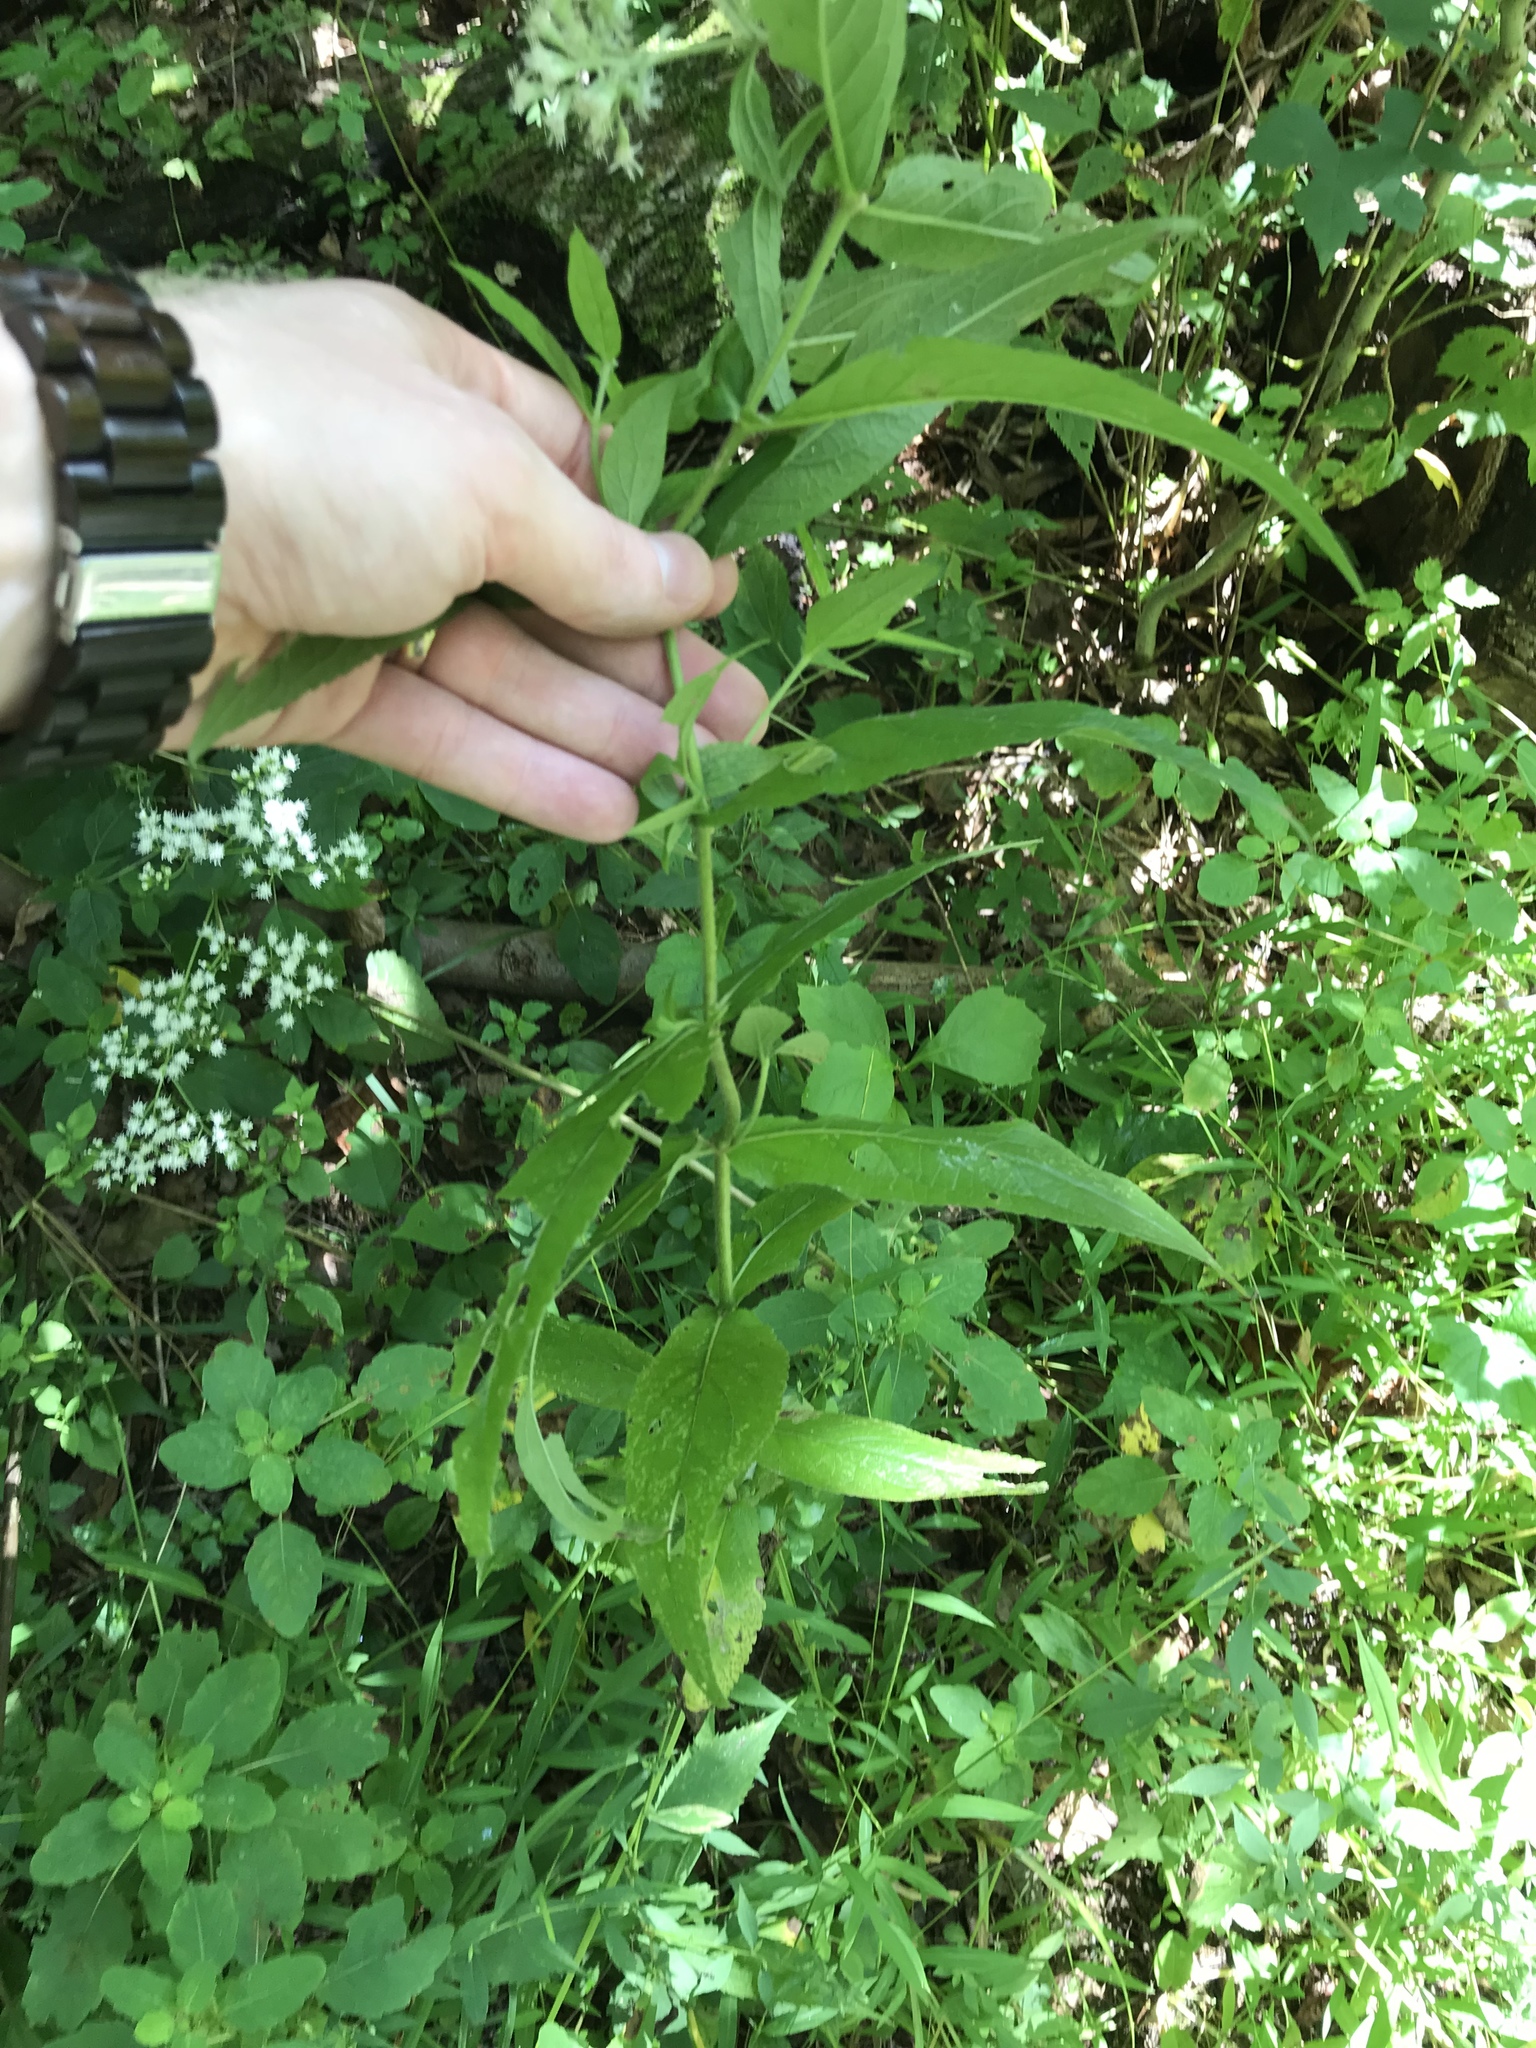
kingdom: Plantae
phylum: Tracheophyta
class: Magnoliopsida
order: Asterales
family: Asteraceae
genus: Eupatorium
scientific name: Eupatorium sessilifolium
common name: Upland boneset
